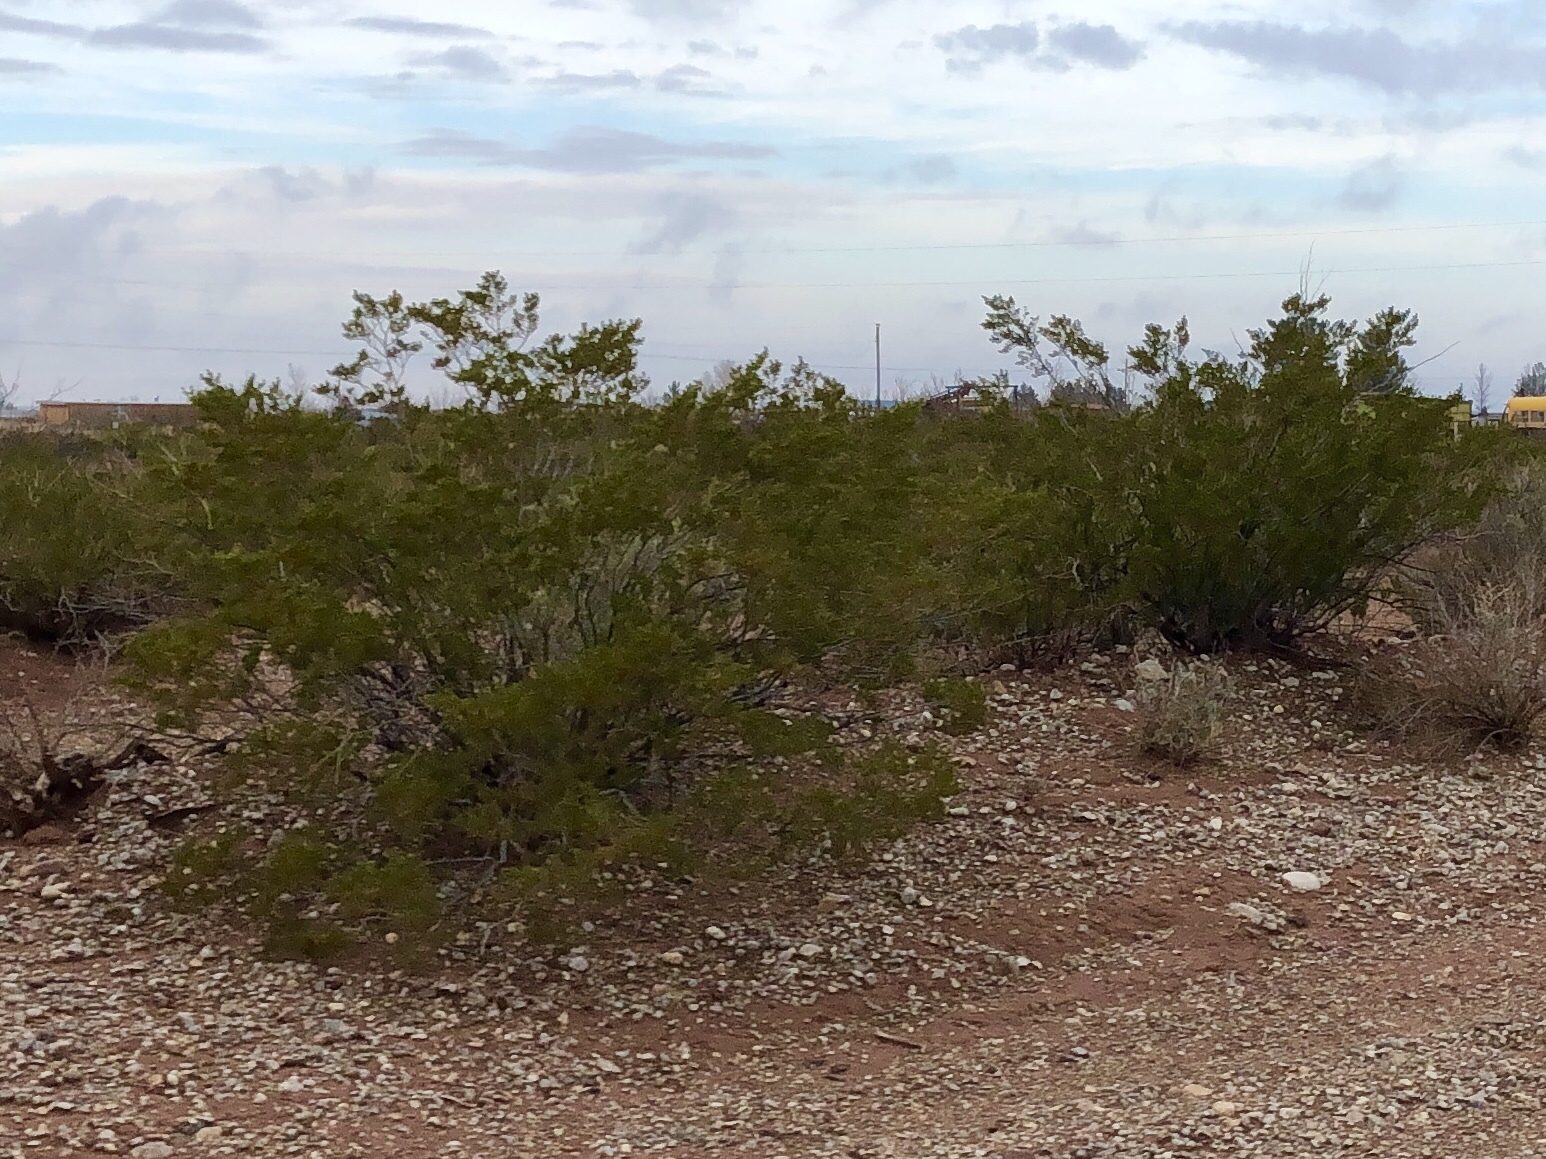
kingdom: Plantae
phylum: Tracheophyta
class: Magnoliopsida
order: Zygophyllales
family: Zygophyllaceae
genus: Larrea
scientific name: Larrea tridentata
